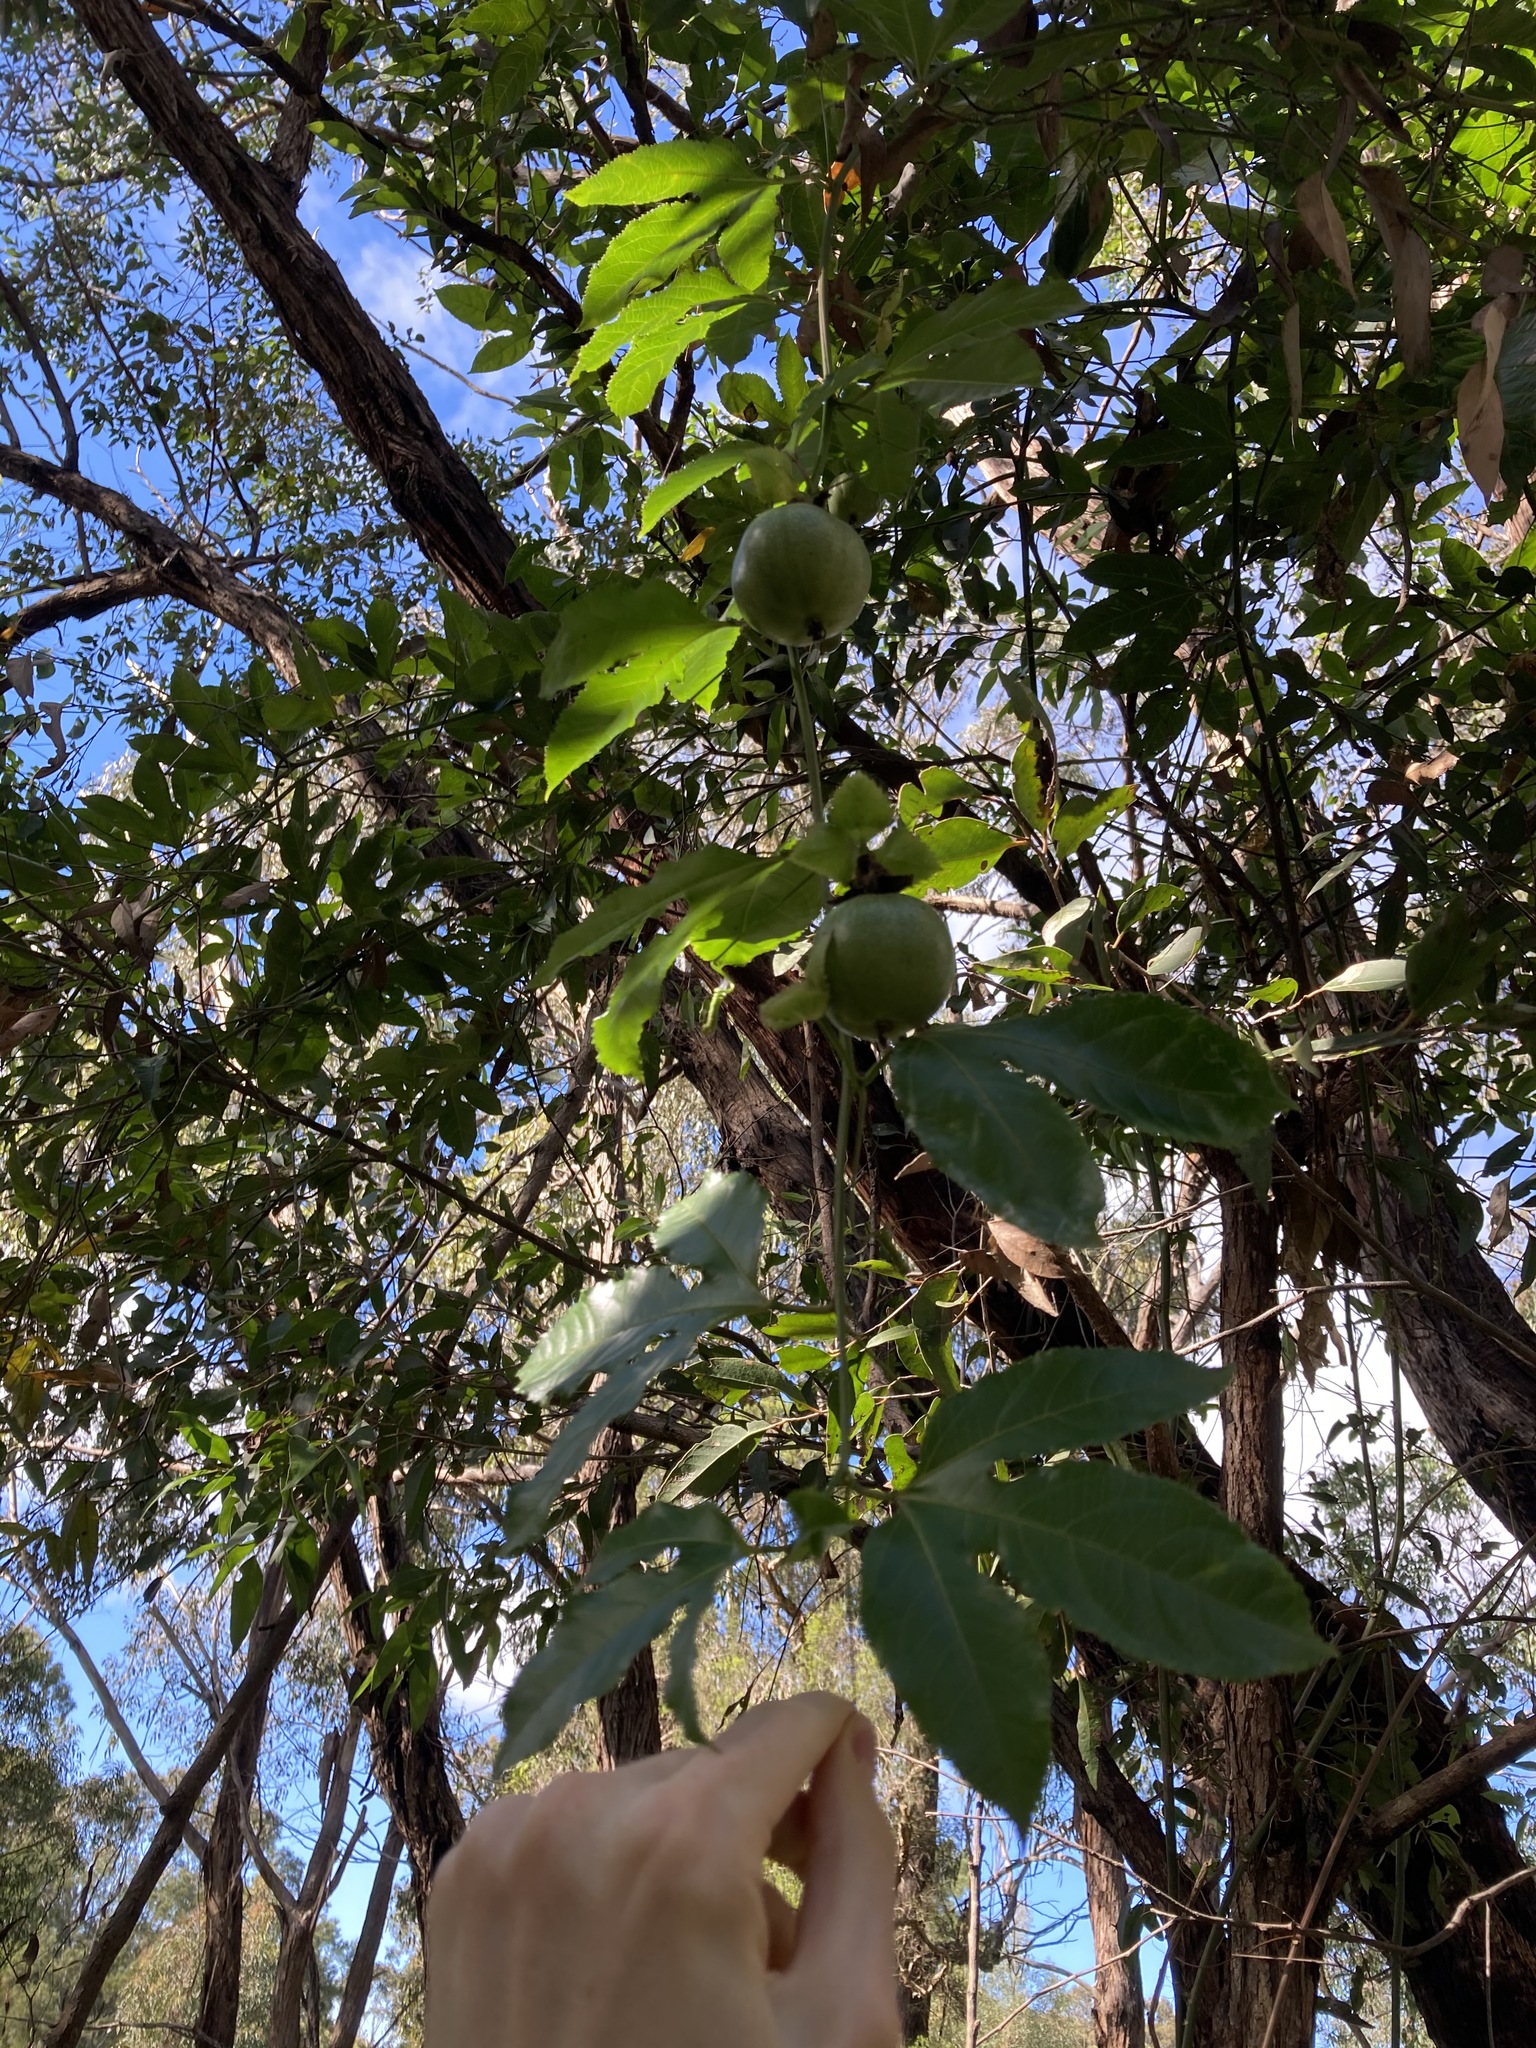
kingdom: Plantae
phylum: Tracheophyta
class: Magnoliopsida
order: Malpighiales
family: Passifloraceae
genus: Passiflora
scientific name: Passiflora edulis
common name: Purple granadilla
